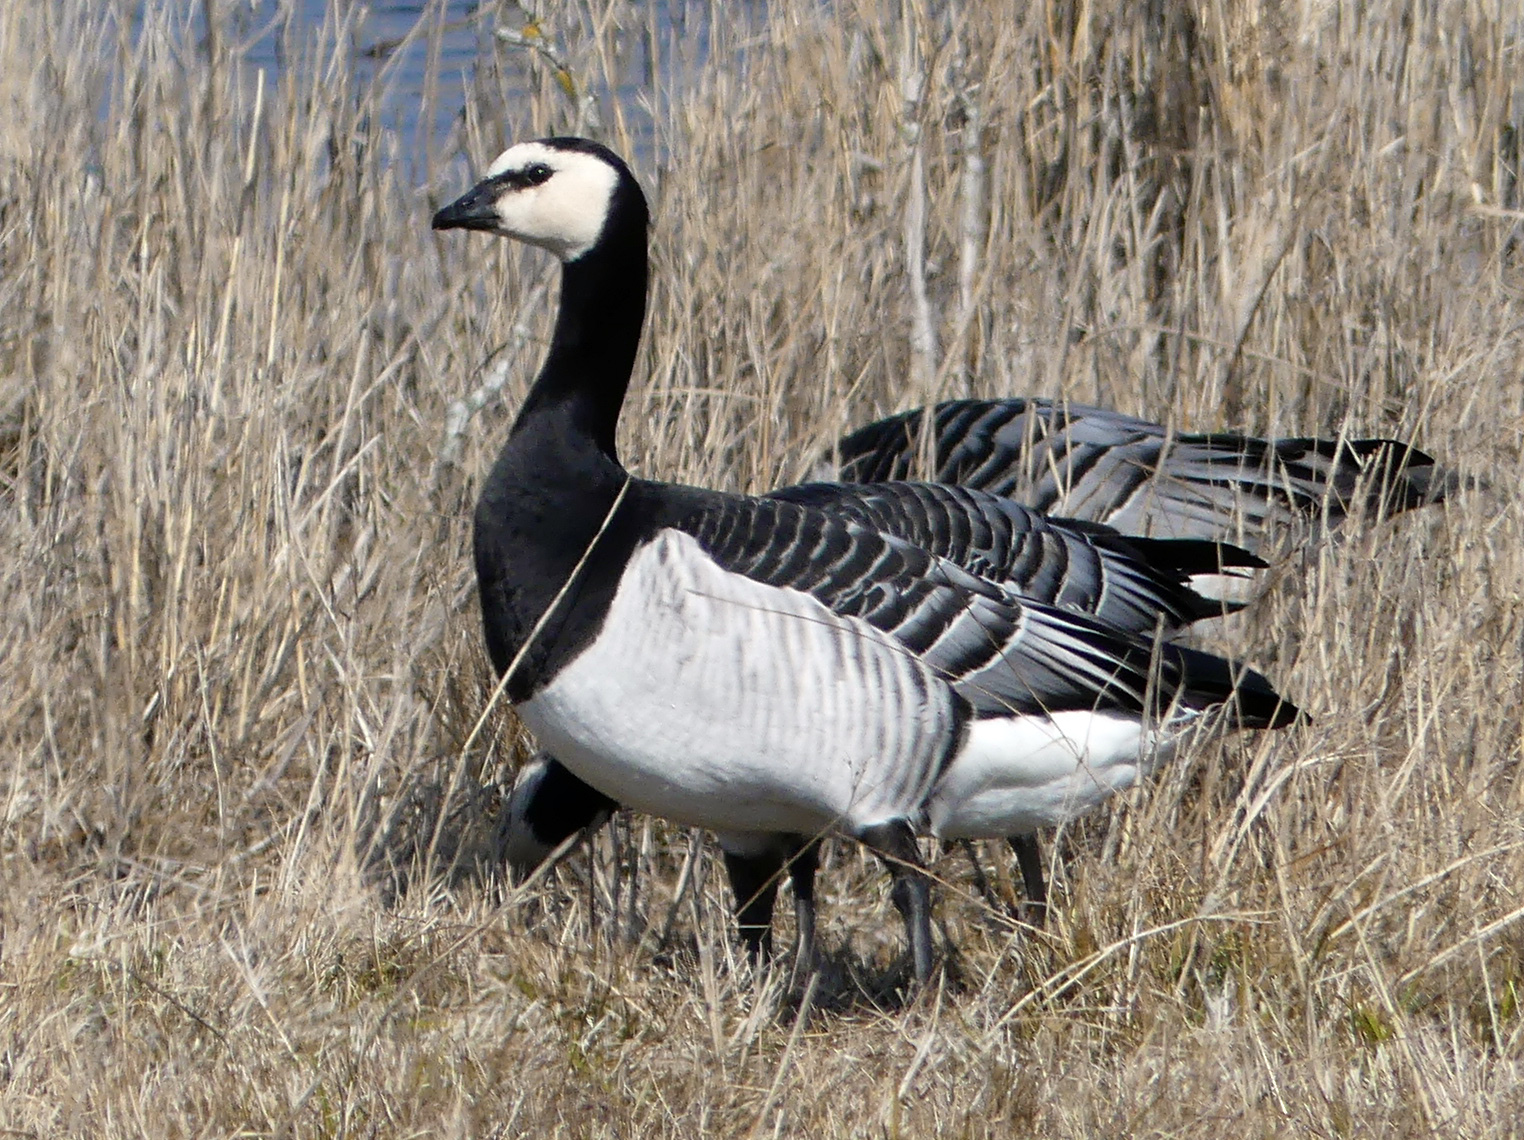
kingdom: Animalia
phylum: Chordata
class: Aves
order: Anseriformes
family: Anatidae
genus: Branta
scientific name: Branta leucopsis
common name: Barnacle goose
